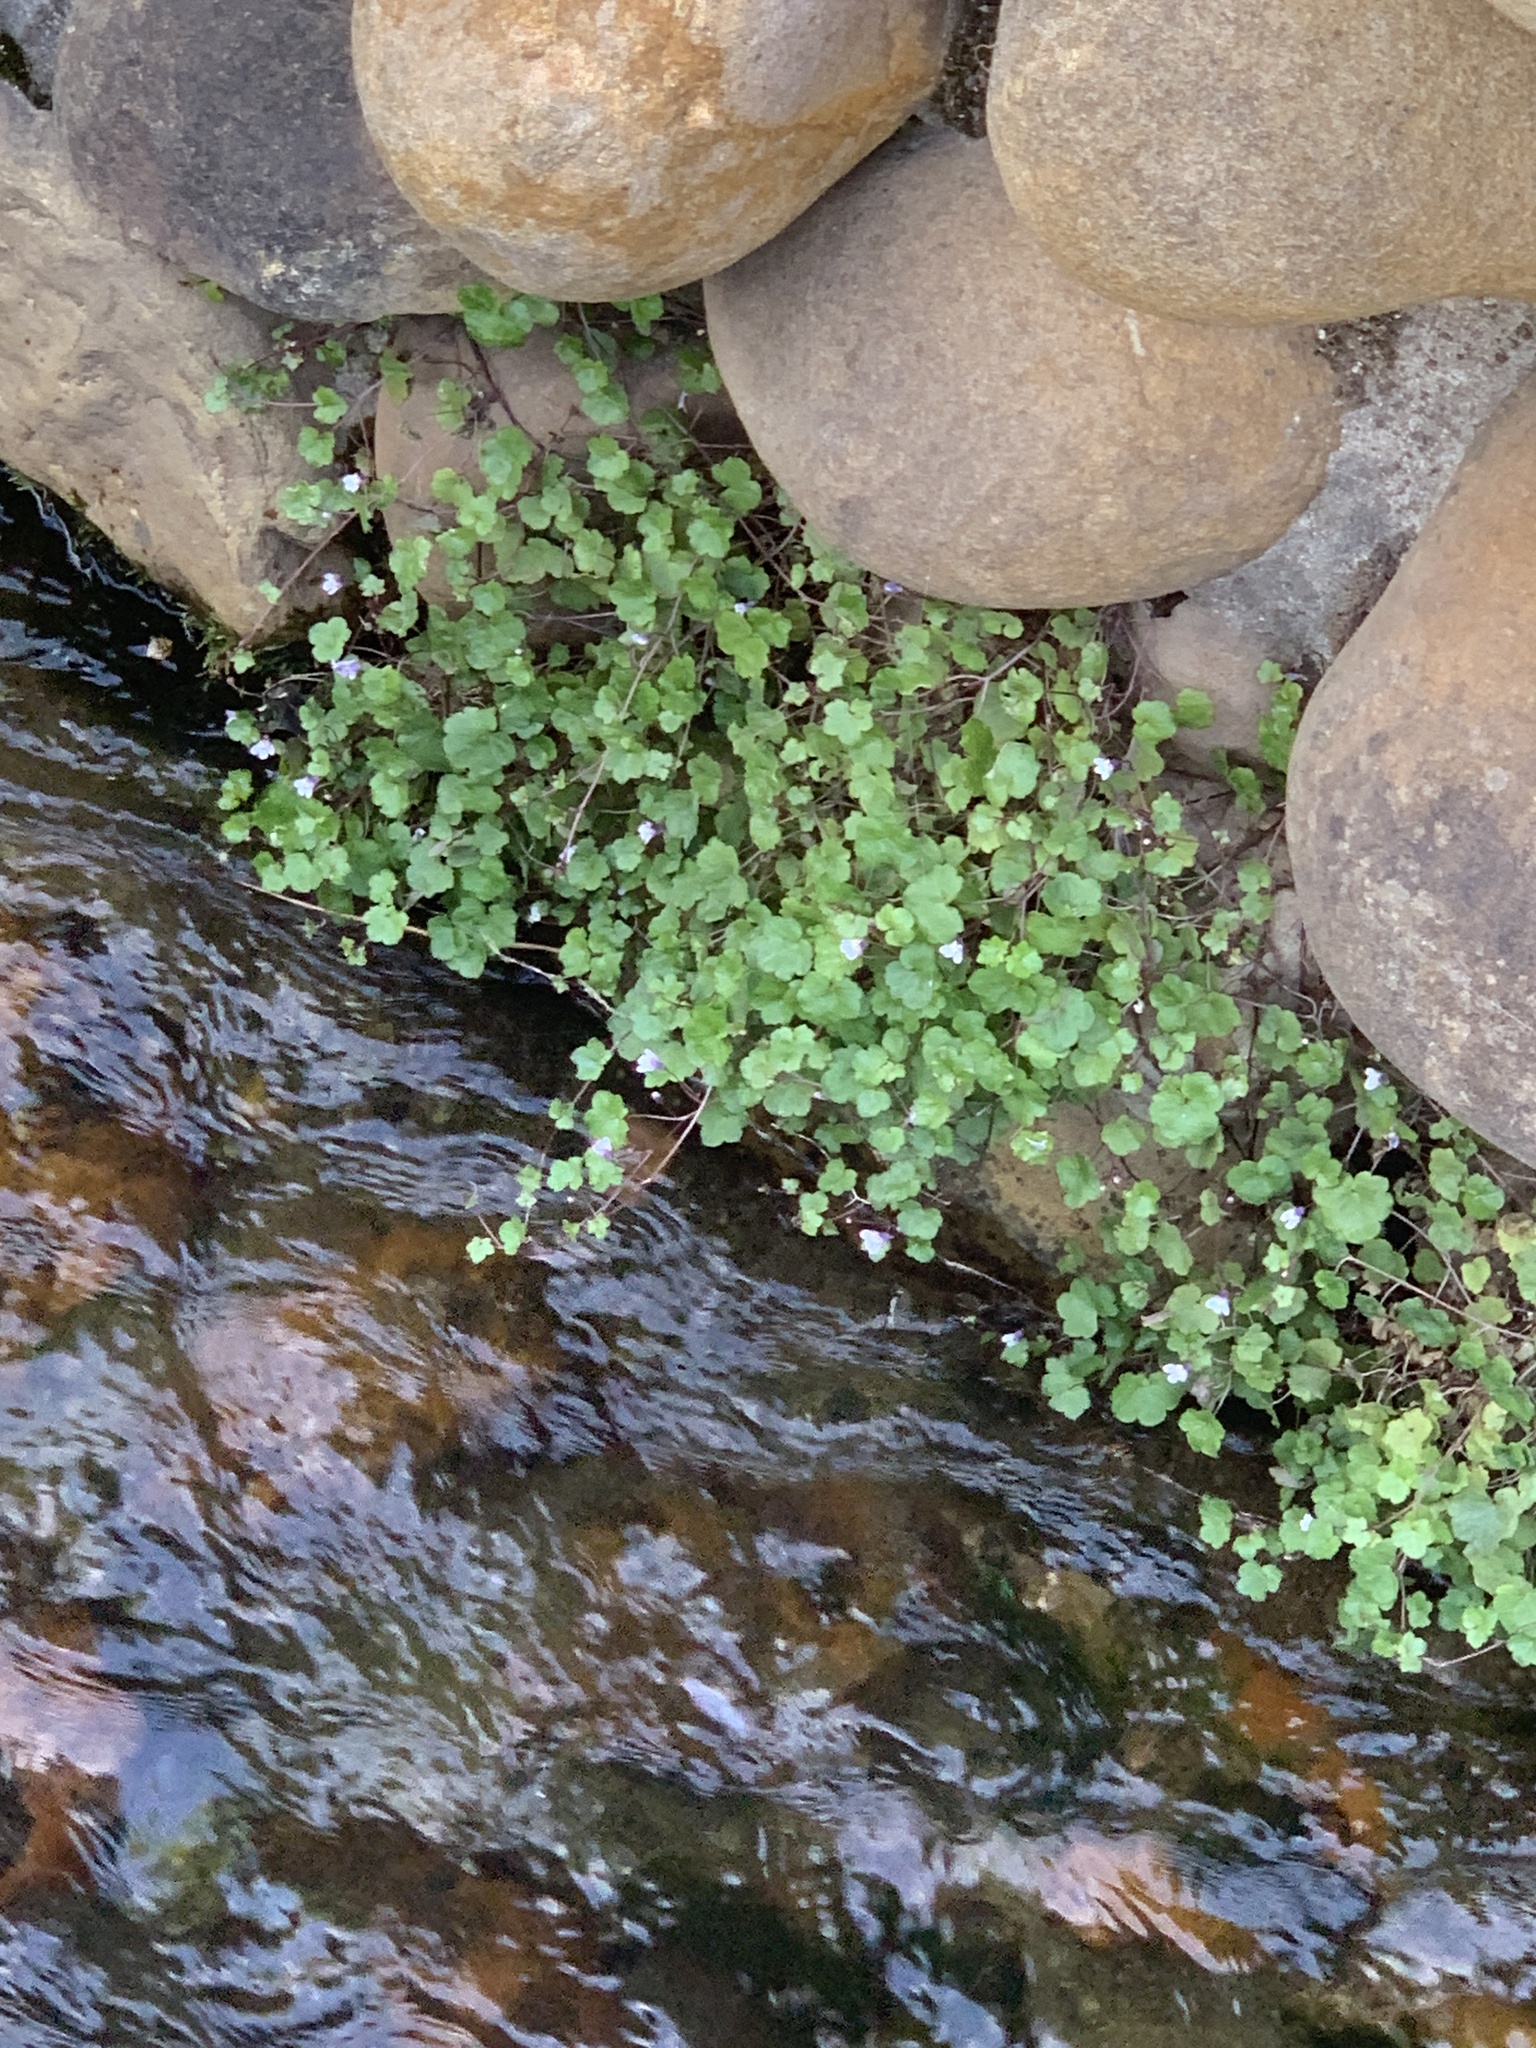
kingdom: Plantae
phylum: Tracheophyta
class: Magnoliopsida
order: Lamiales
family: Plantaginaceae
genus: Cymbalaria
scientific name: Cymbalaria muralis
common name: Ivy-leaved toadflax
